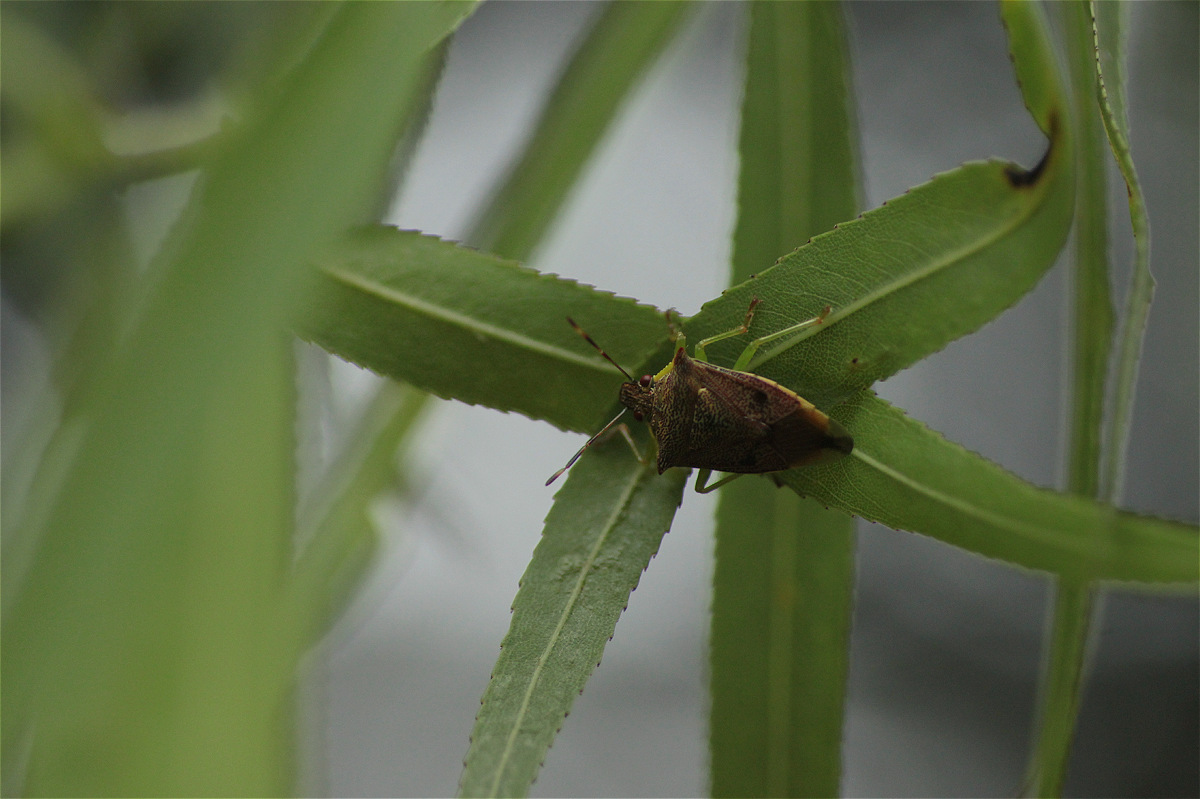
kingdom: Animalia
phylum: Arthropoda
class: Insecta
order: Hemiptera
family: Pentatomidae
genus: Podisus
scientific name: Podisus
